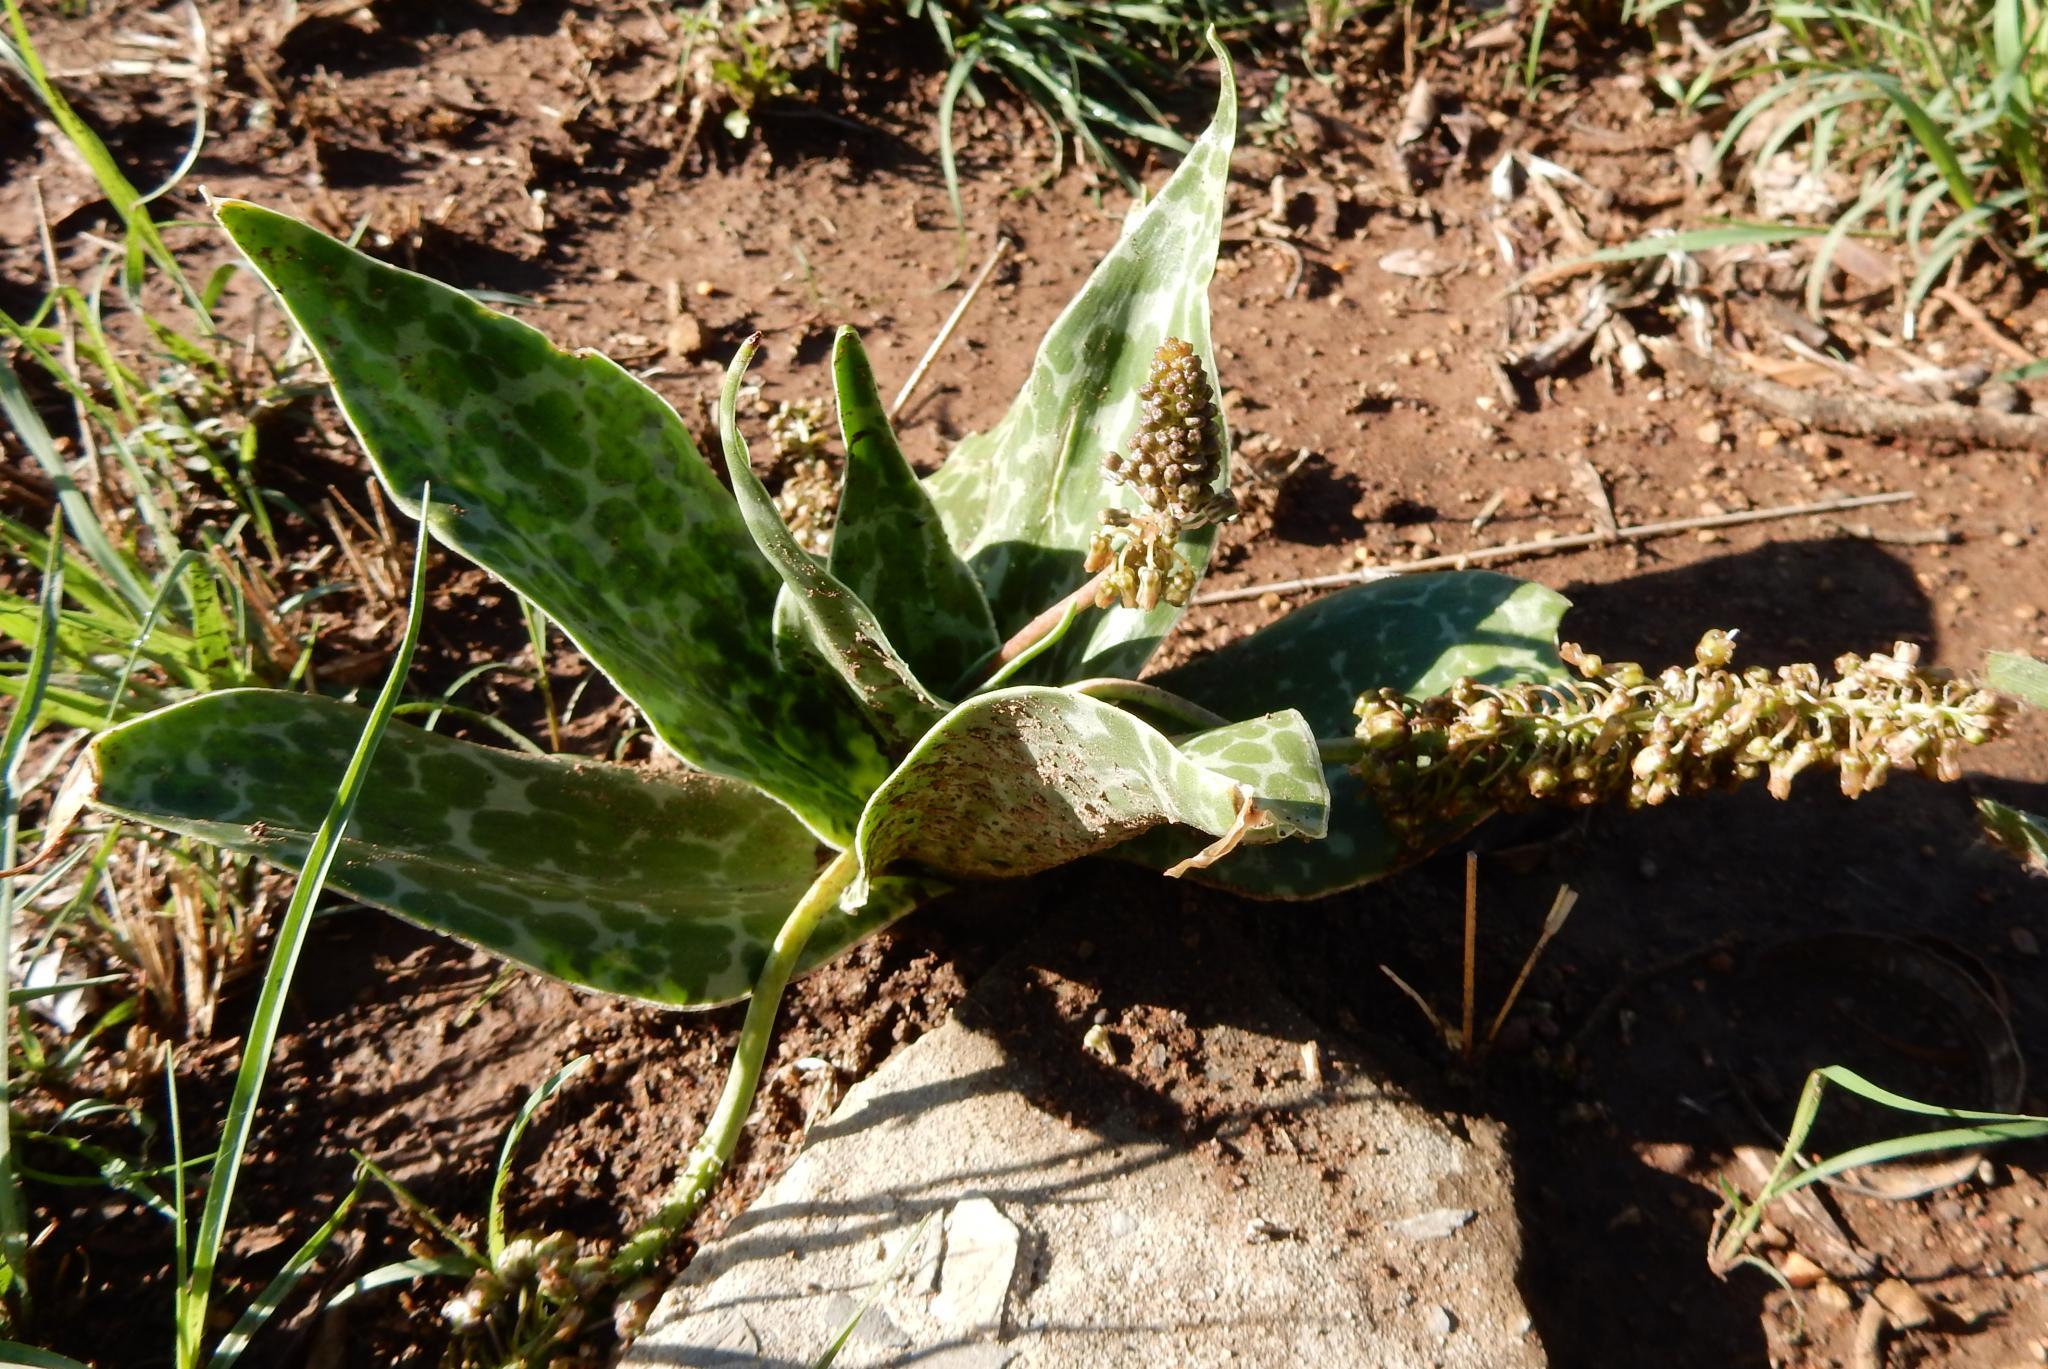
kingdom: Plantae
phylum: Tracheophyta
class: Liliopsida
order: Asparagales
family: Asparagaceae
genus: Ledebouria
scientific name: Ledebouria luteola
